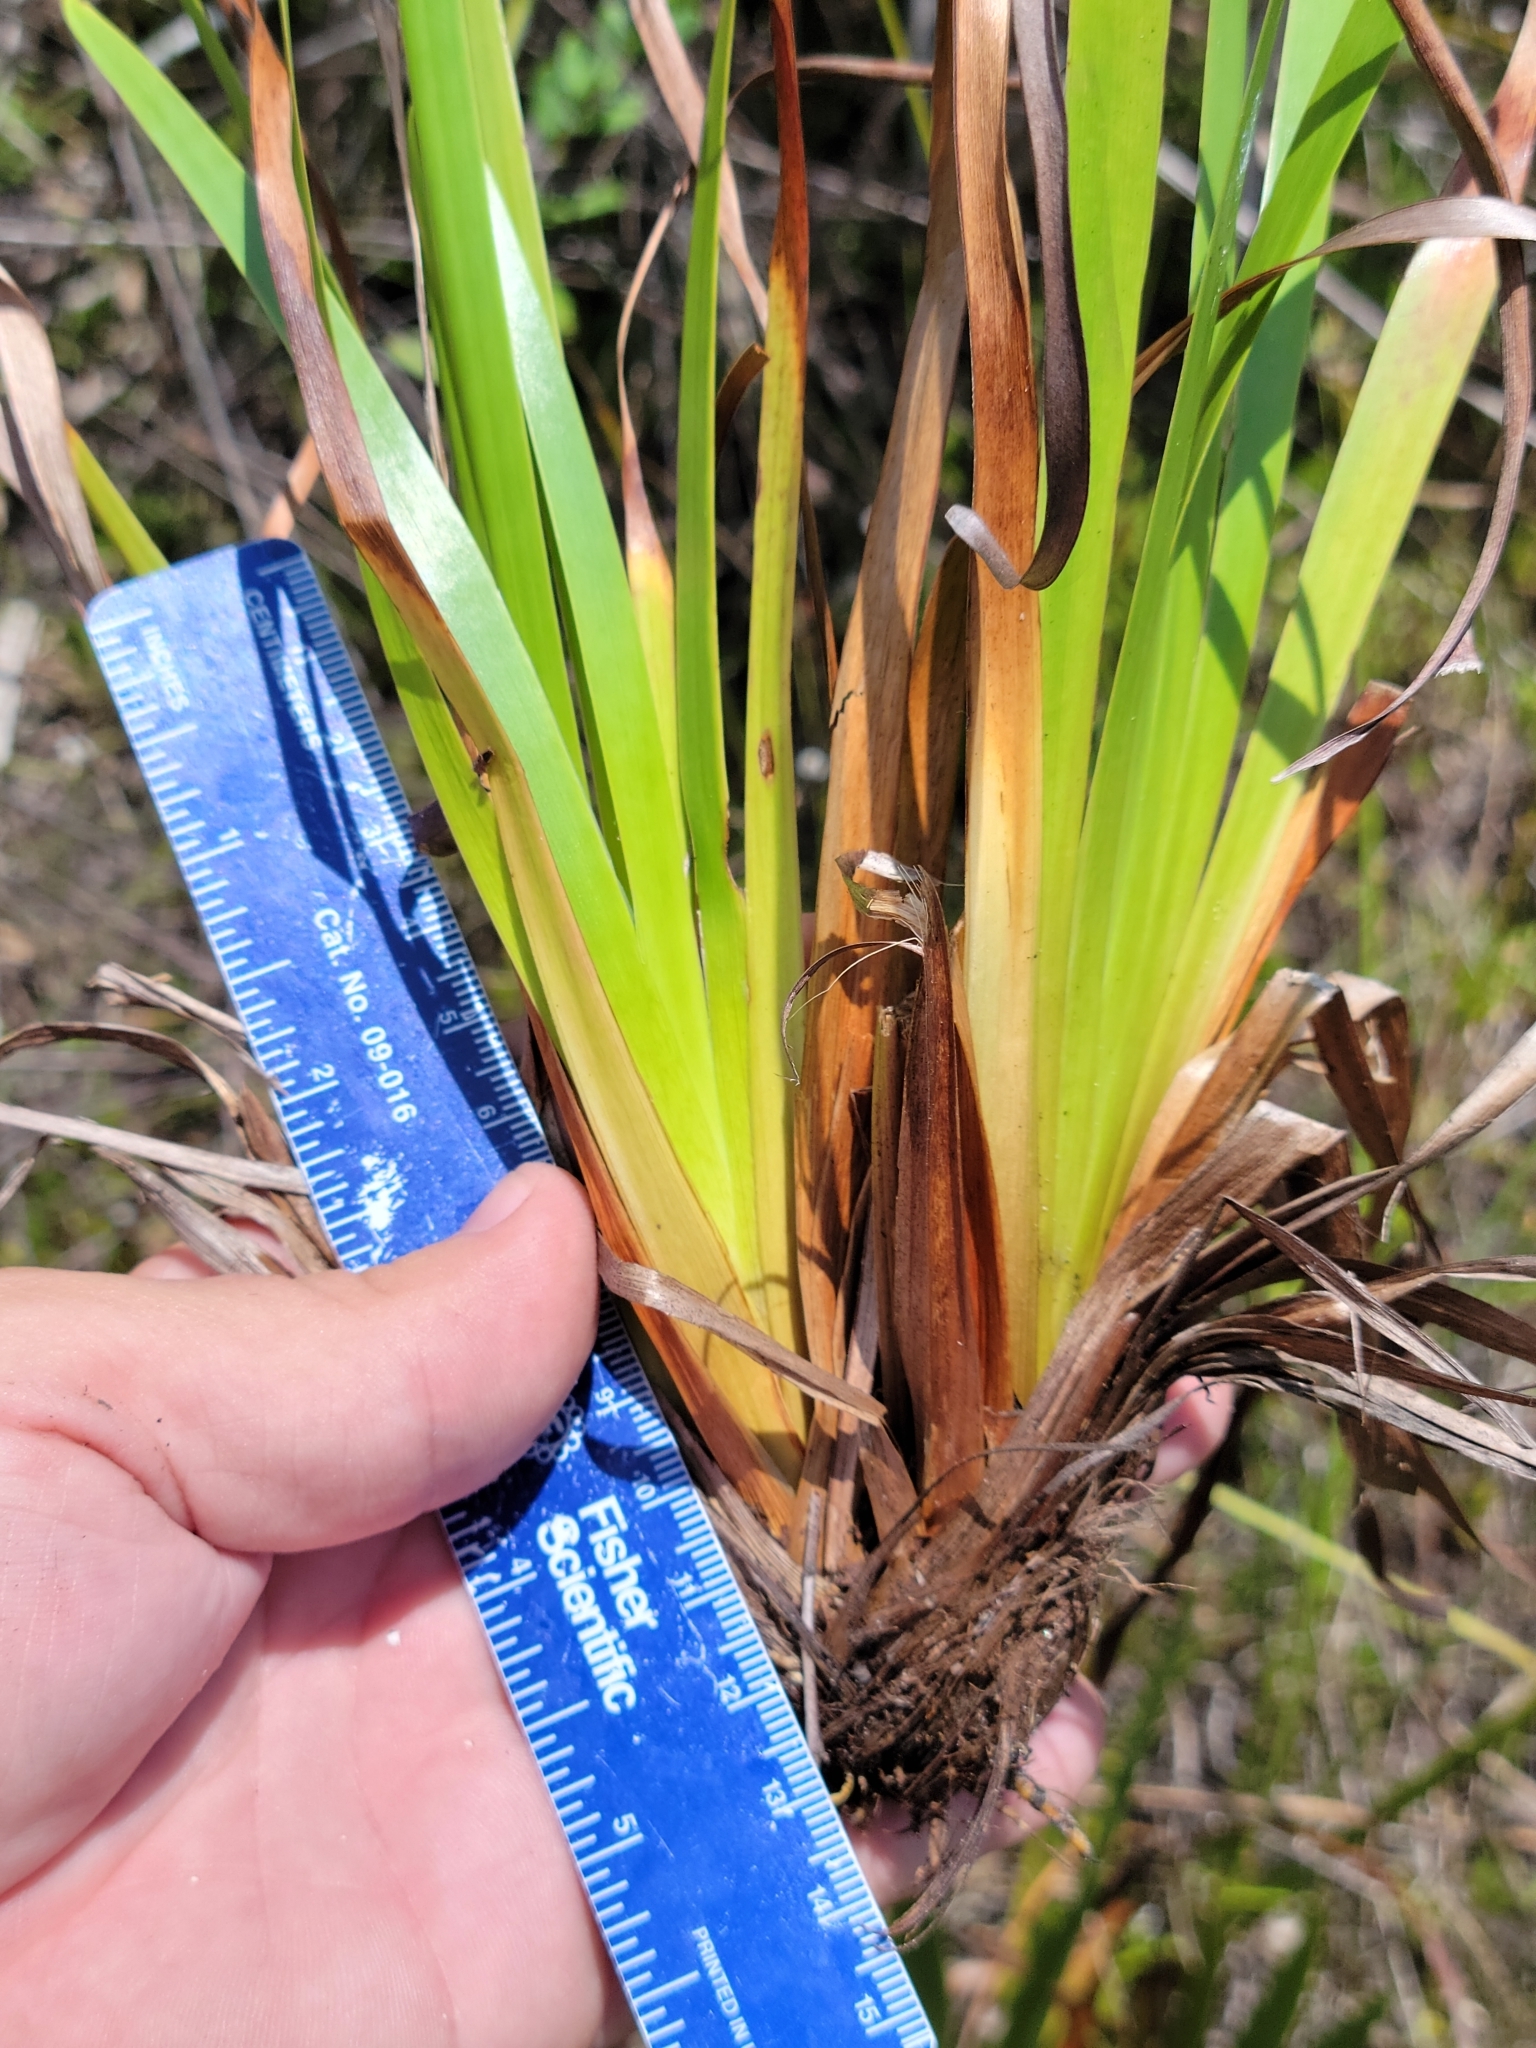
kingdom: Plantae
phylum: Tracheophyta
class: Liliopsida
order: Poales
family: Xyridaceae
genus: Xyris
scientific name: Xyris ambigua
